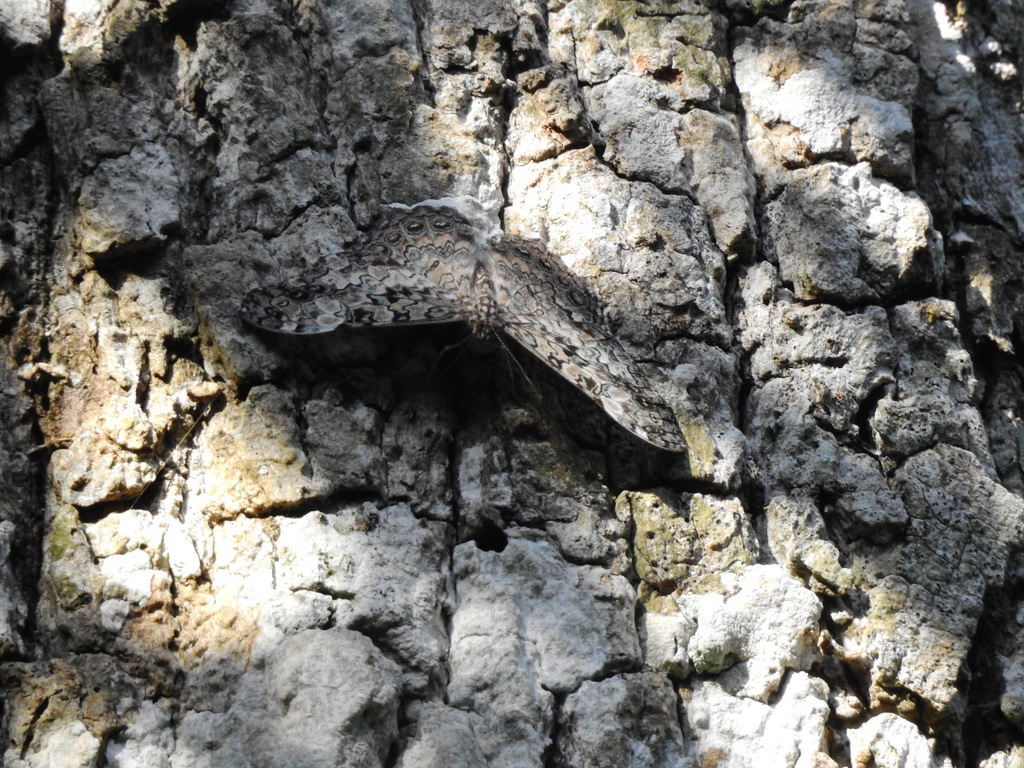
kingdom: Animalia
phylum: Arthropoda
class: Insecta
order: Lepidoptera
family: Nymphalidae
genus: Hamadryas
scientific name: Hamadryas epinome
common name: Epinome cracker
